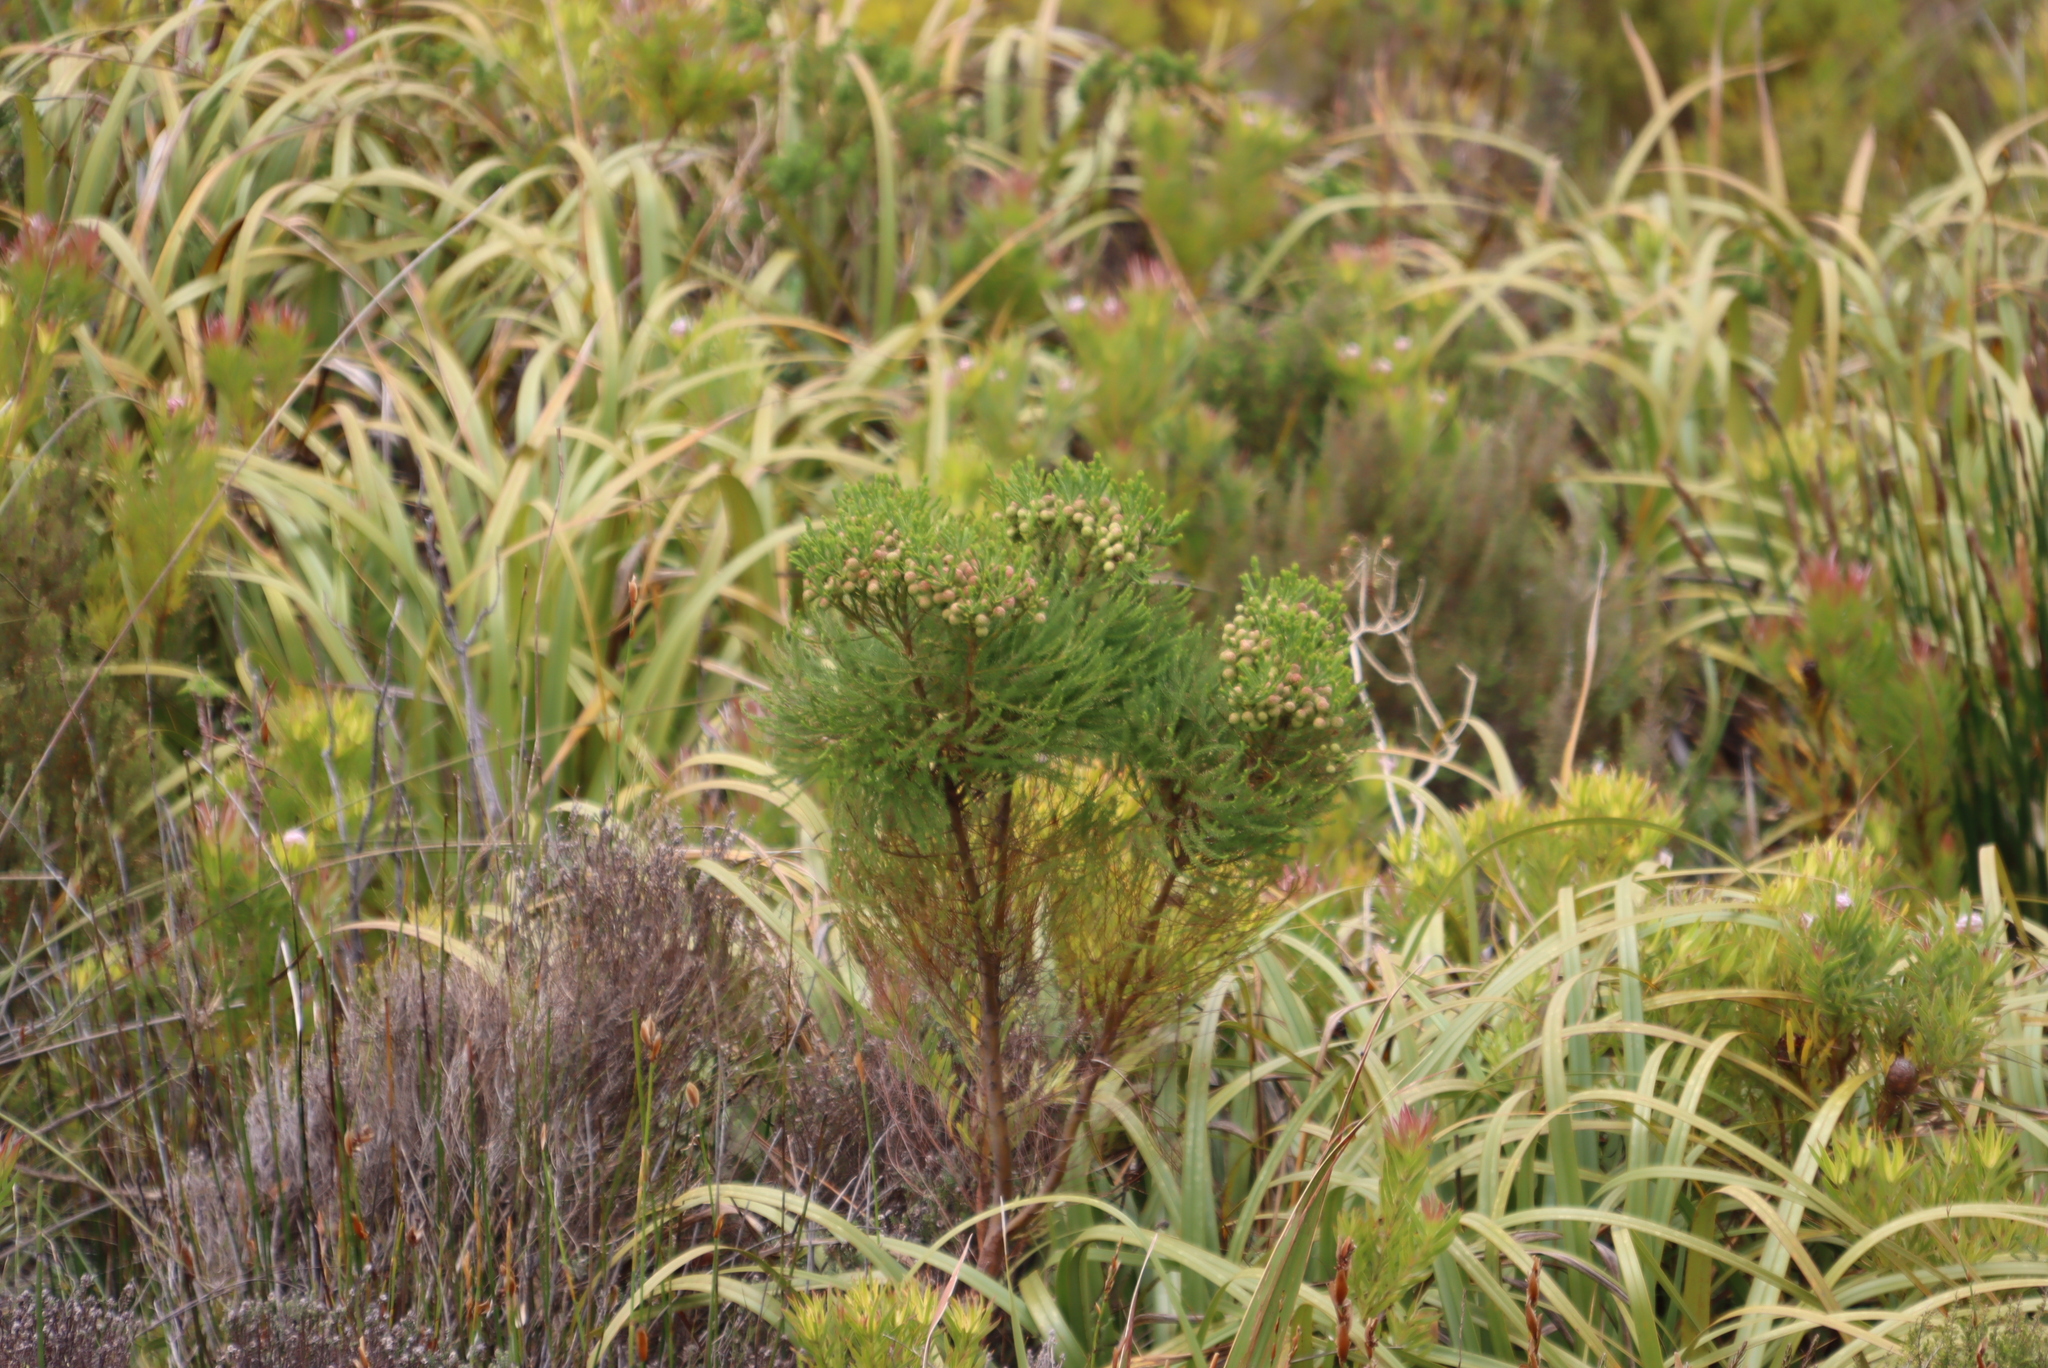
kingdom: Plantae
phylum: Tracheophyta
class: Magnoliopsida
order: Bruniales
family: Bruniaceae
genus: Berzelia
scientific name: Berzelia lanuginosa
